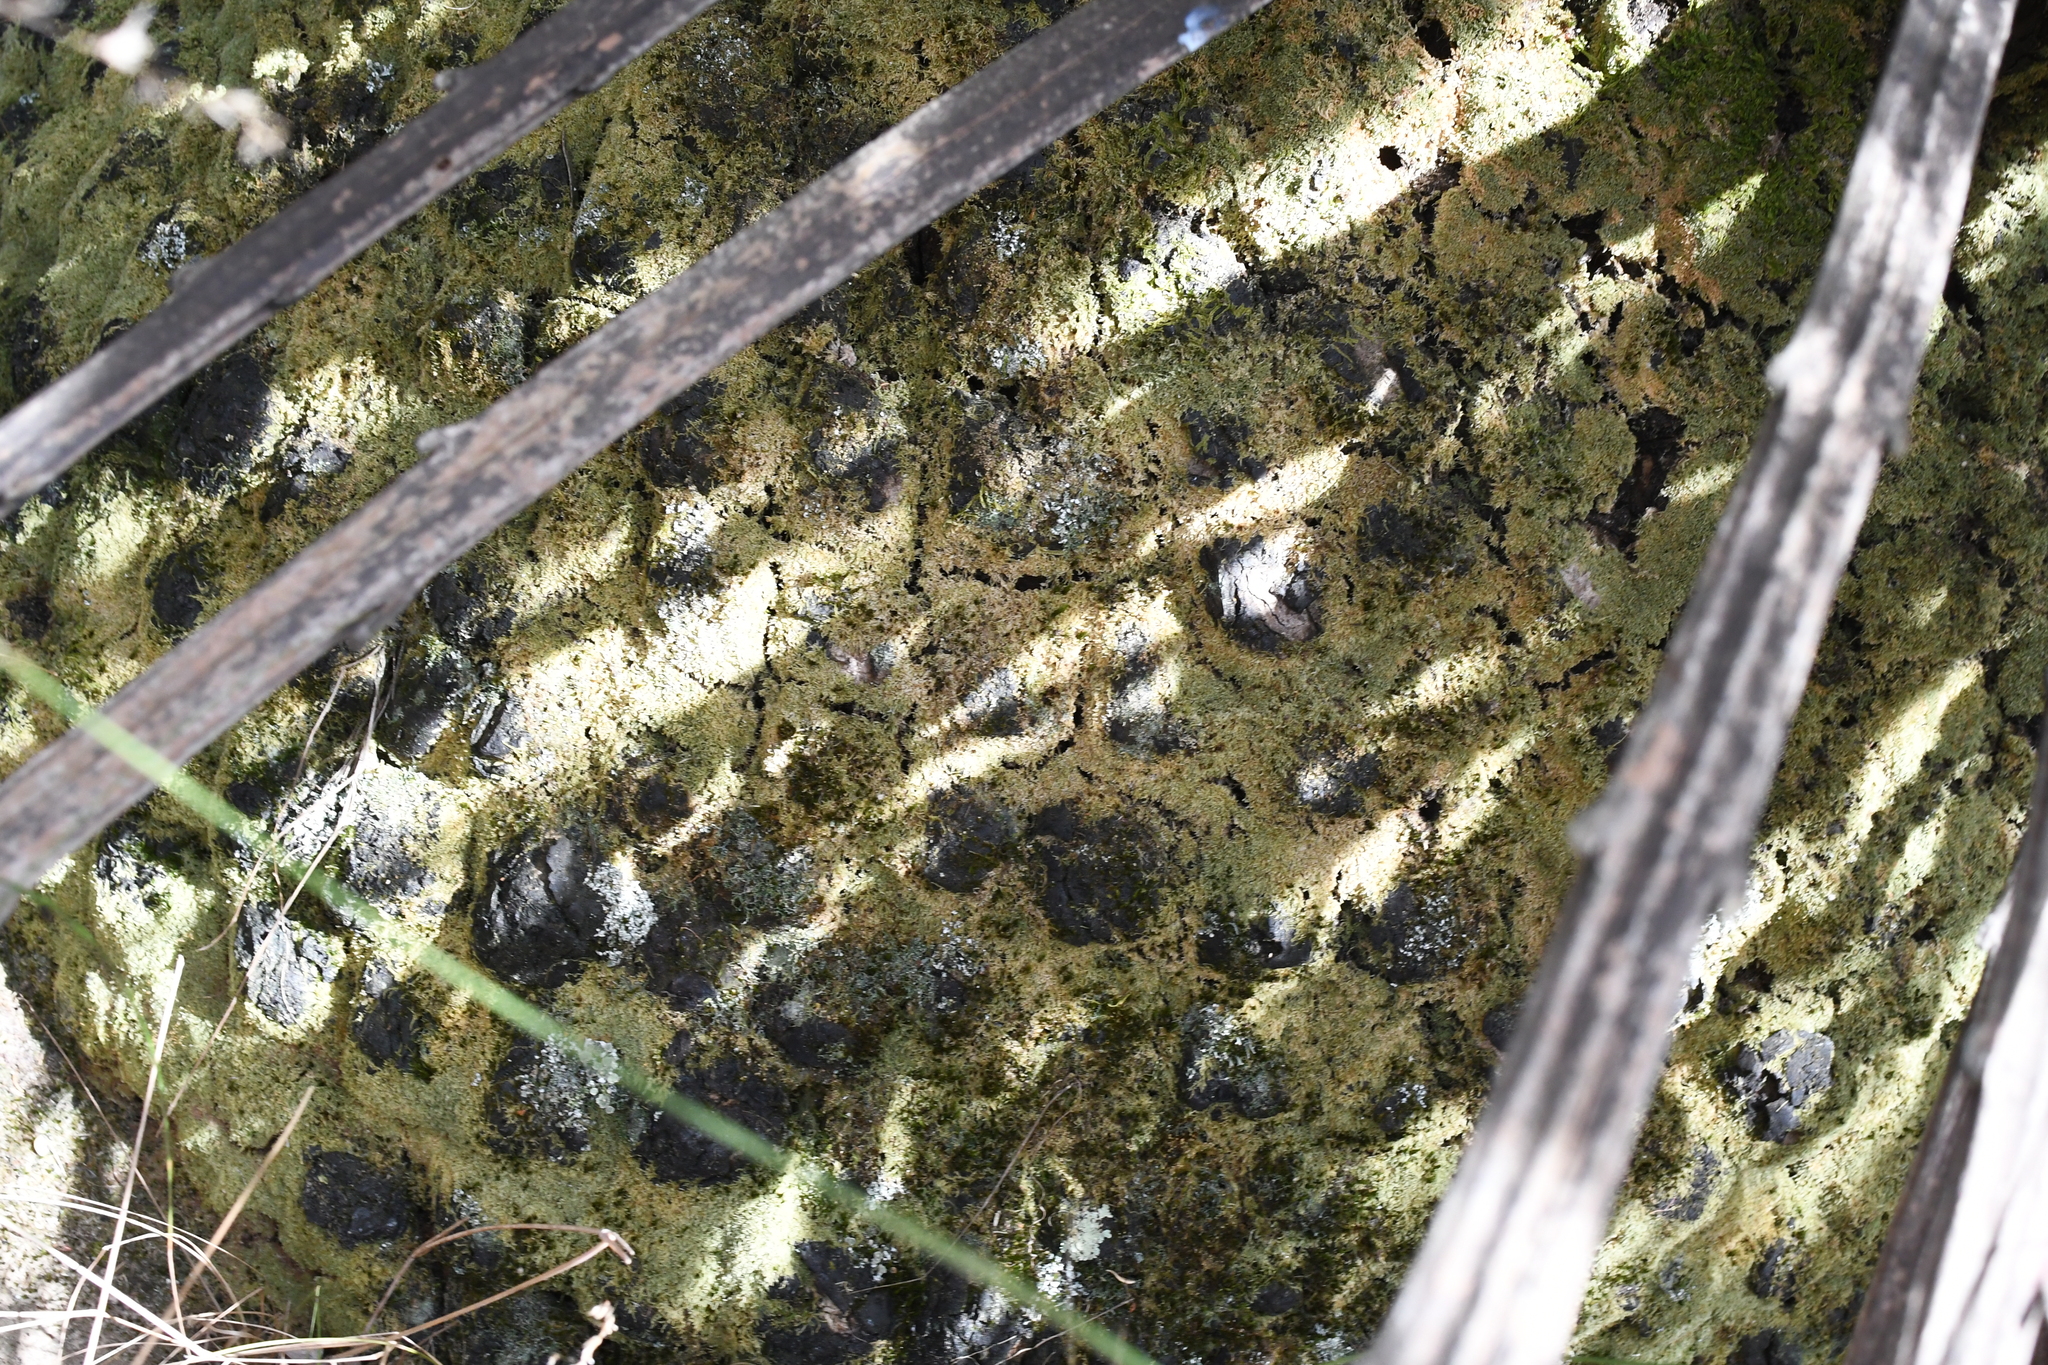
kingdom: Plantae
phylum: Bryophyta
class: Bryopsida
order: Hypnales
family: Fabroniaceae
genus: Fabronia
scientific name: Fabronia hampeana
